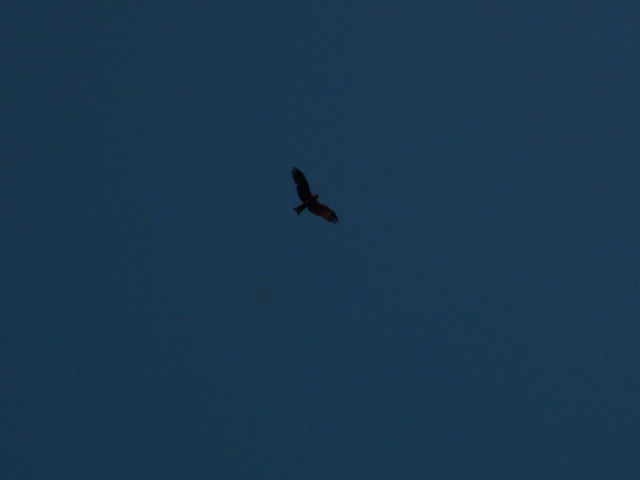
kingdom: Animalia
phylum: Chordata
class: Aves
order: Accipitriformes
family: Accipitridae
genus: Milvus
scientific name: Milvus migrans
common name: Black kite
